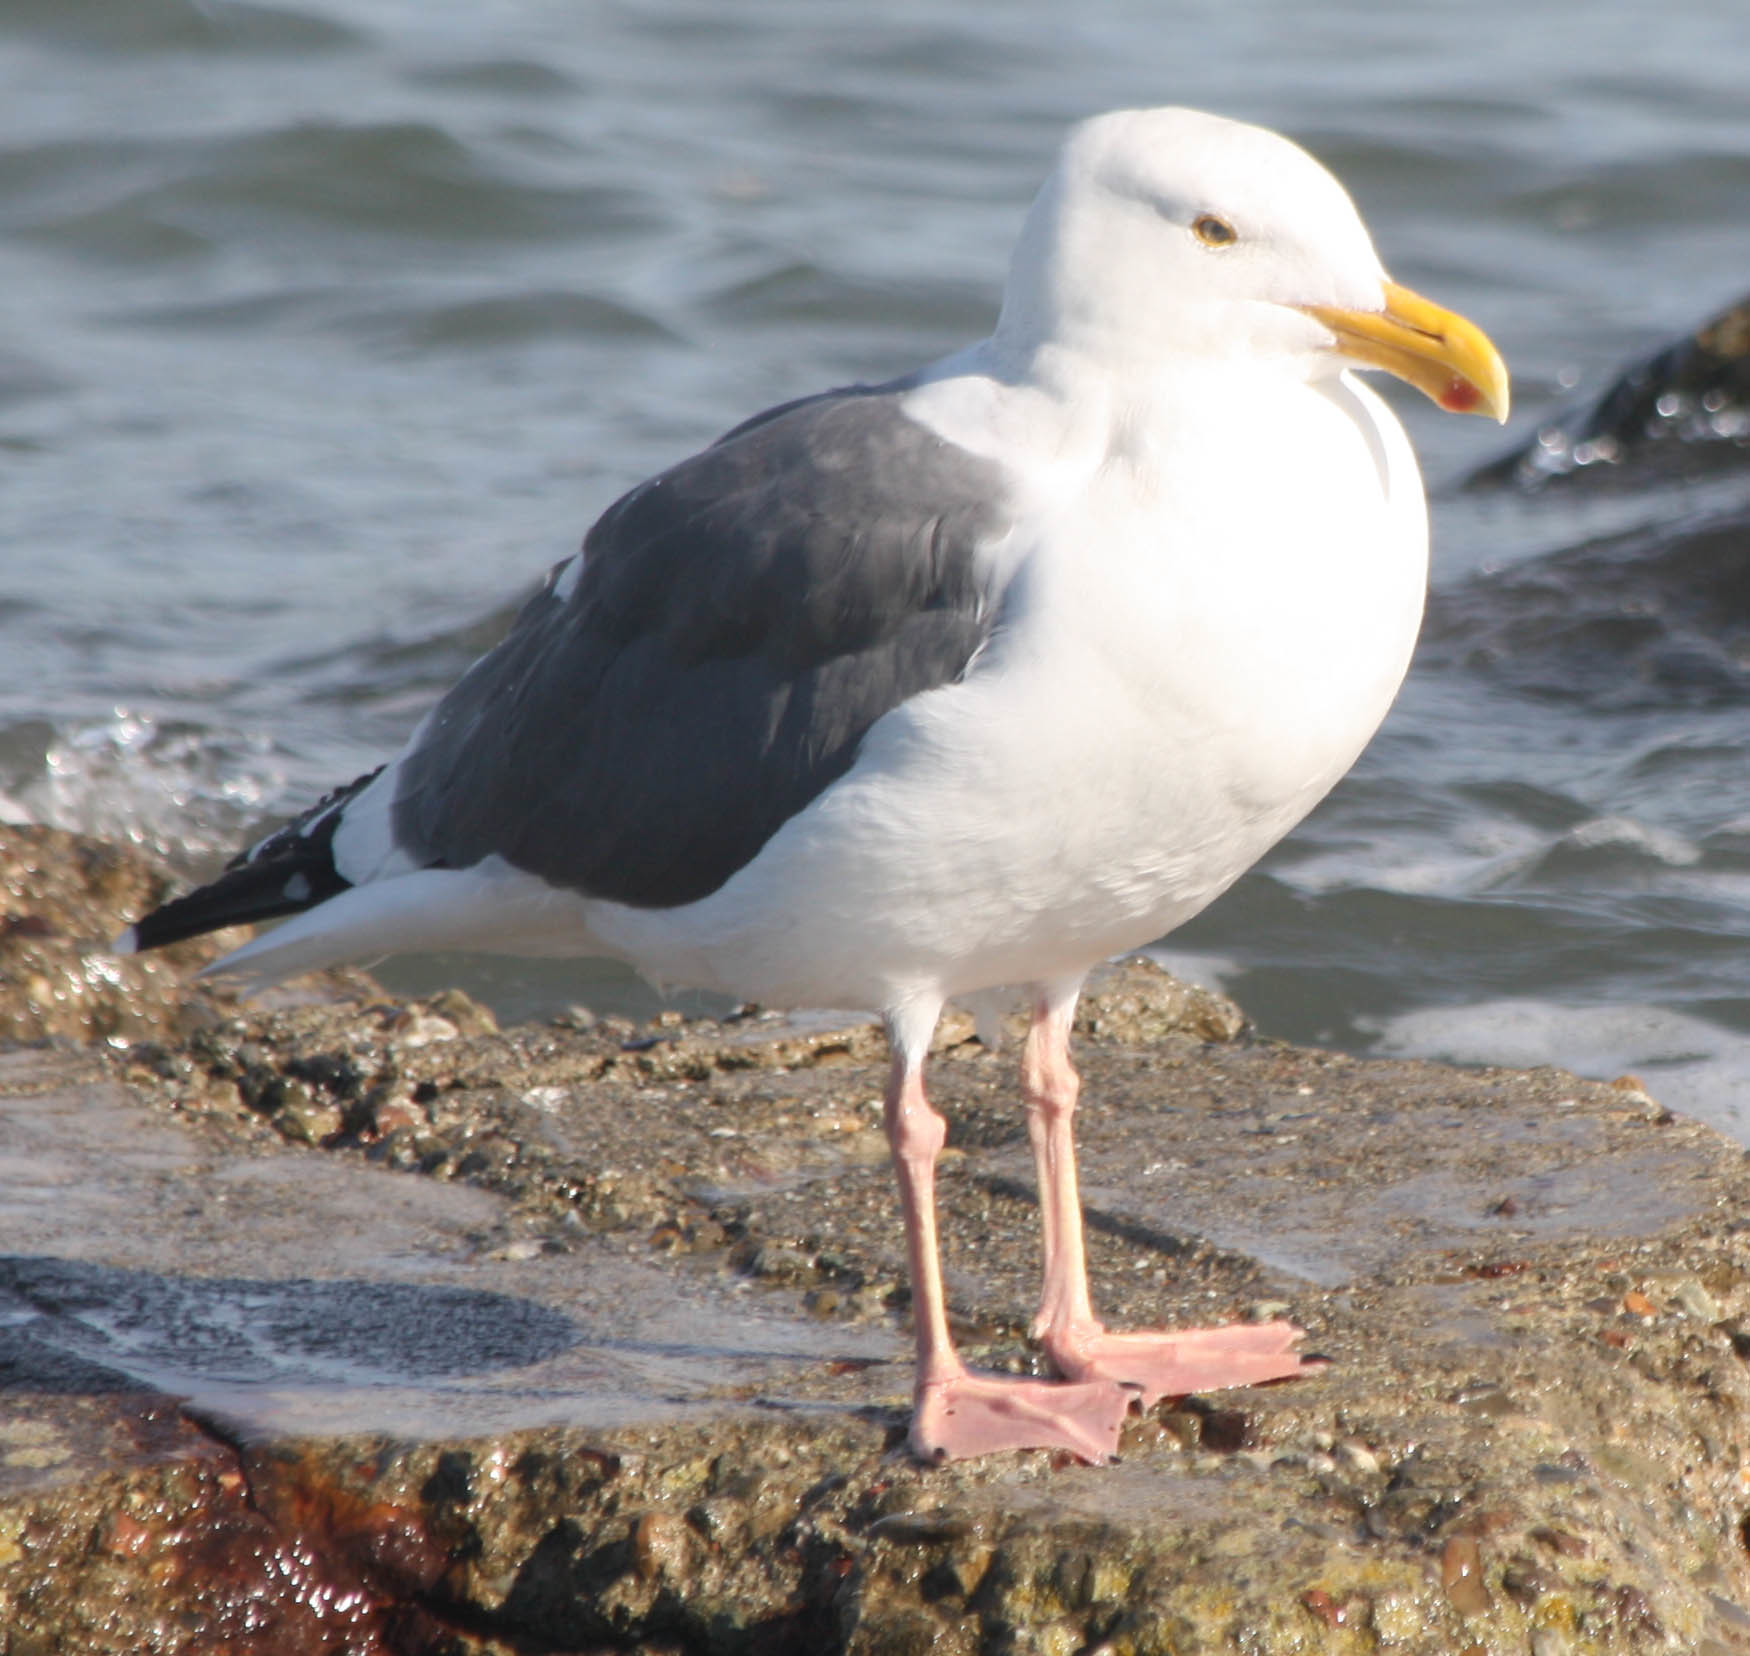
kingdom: Animalia
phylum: Chordata
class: Aves
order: Charadriiformes
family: Laridae
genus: Larus
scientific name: Larus occidentalis
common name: Western gull
